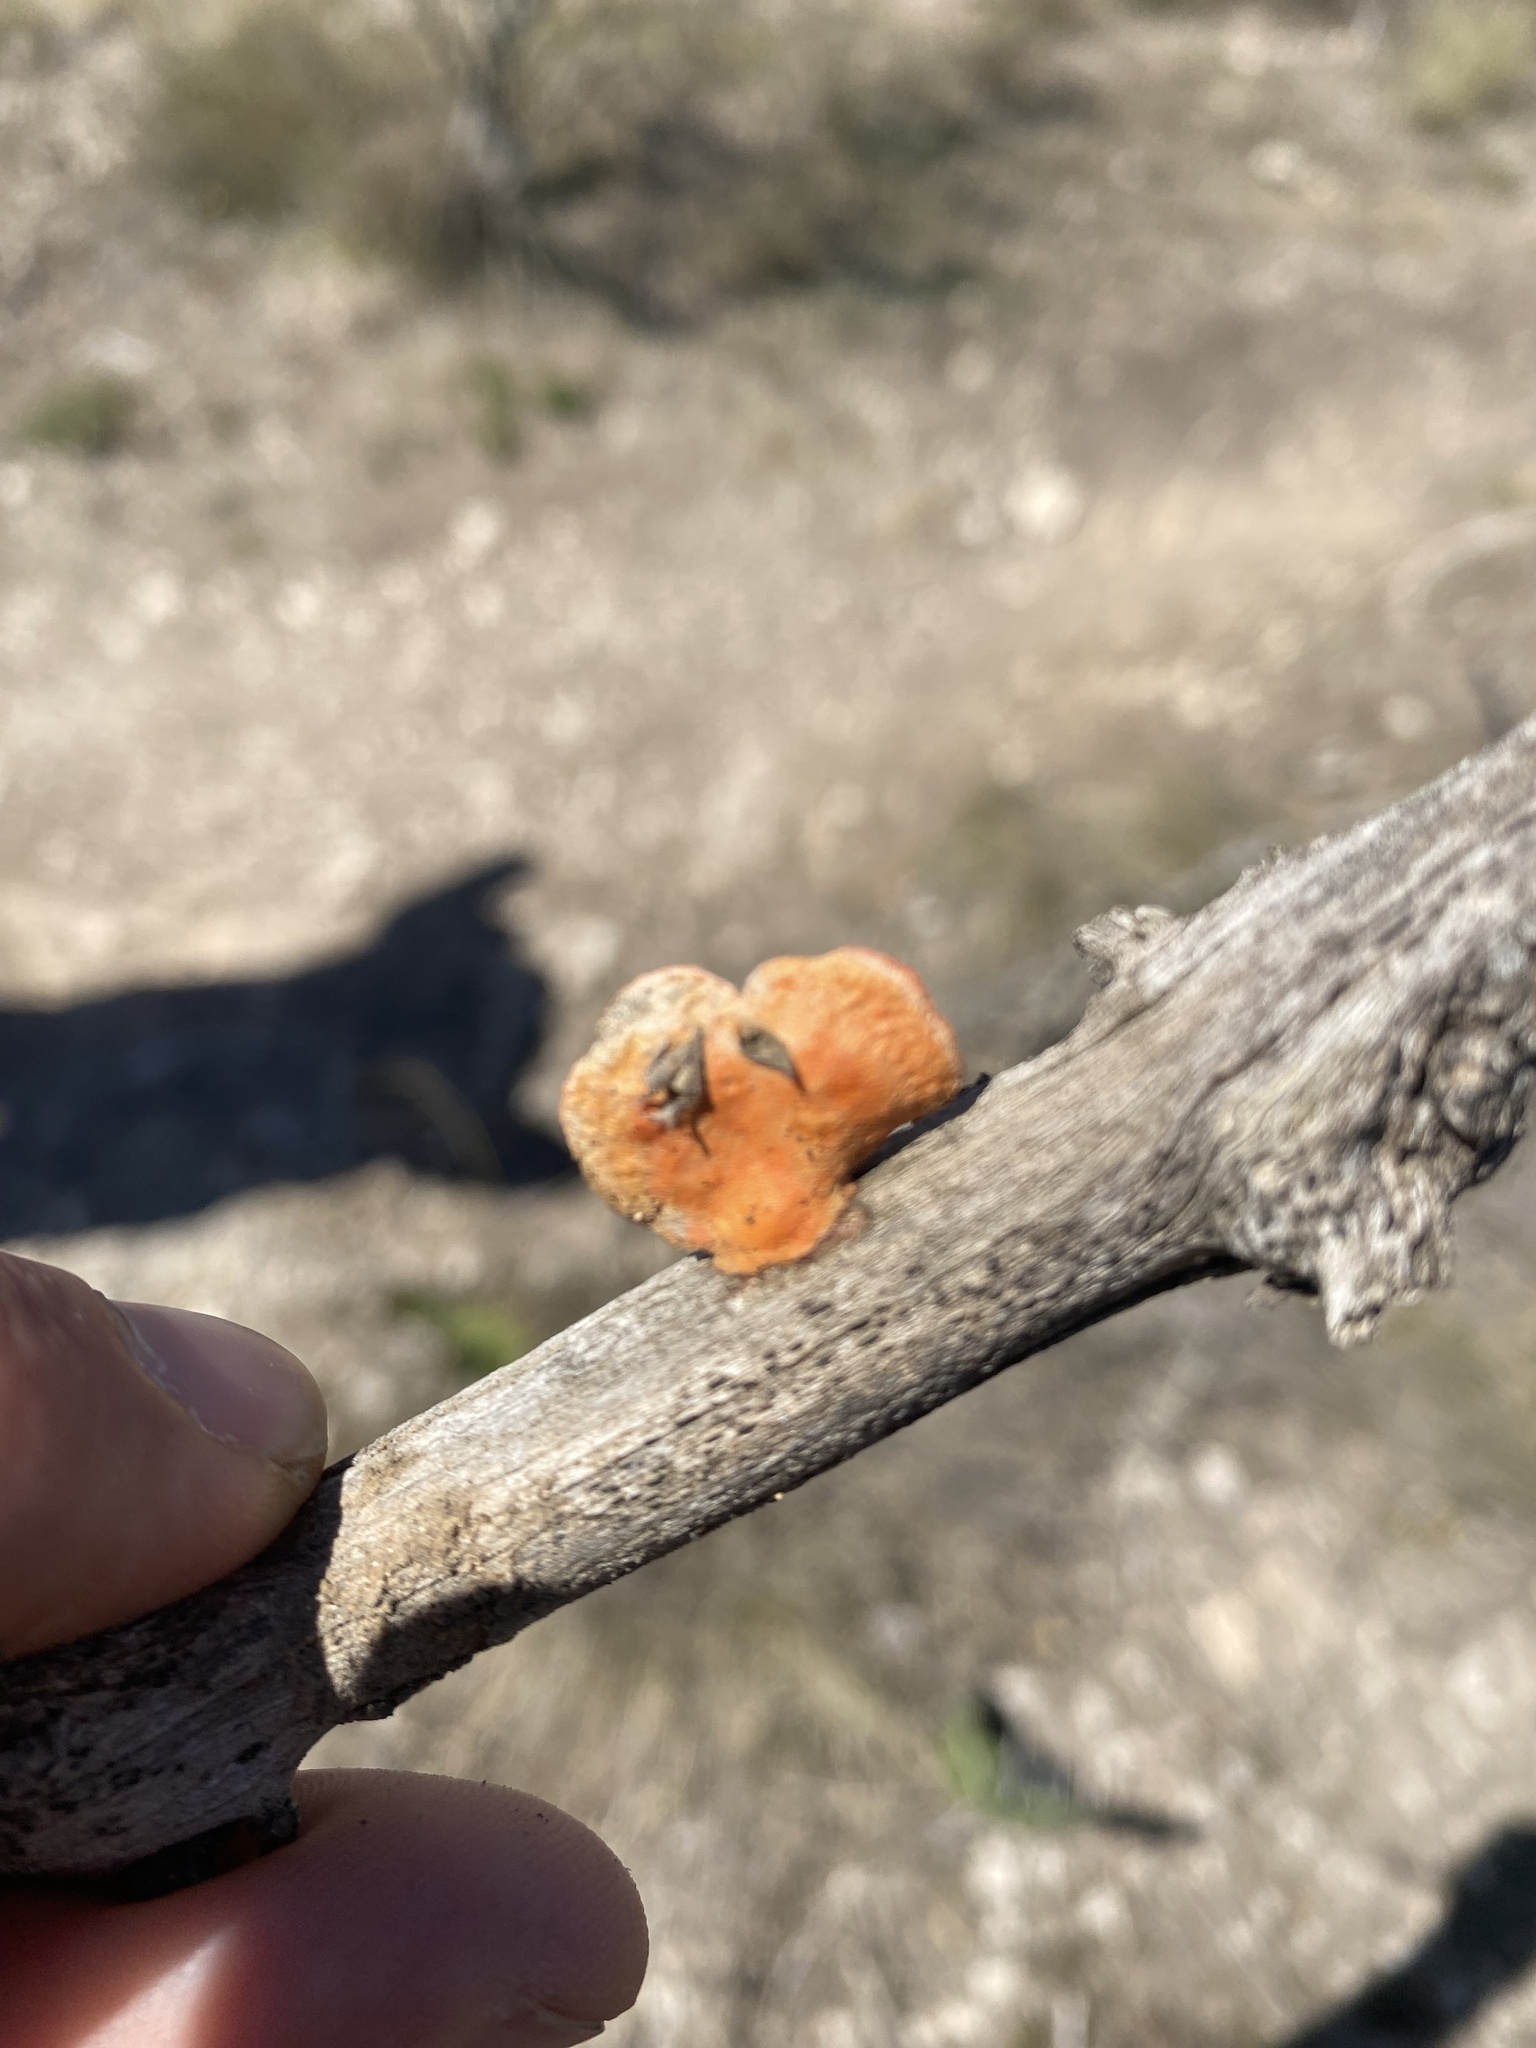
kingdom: Fungi
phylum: Basidiomycota
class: Agaricomycetes
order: Polyporales
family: Polyporaceae
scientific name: Polyporaceae
